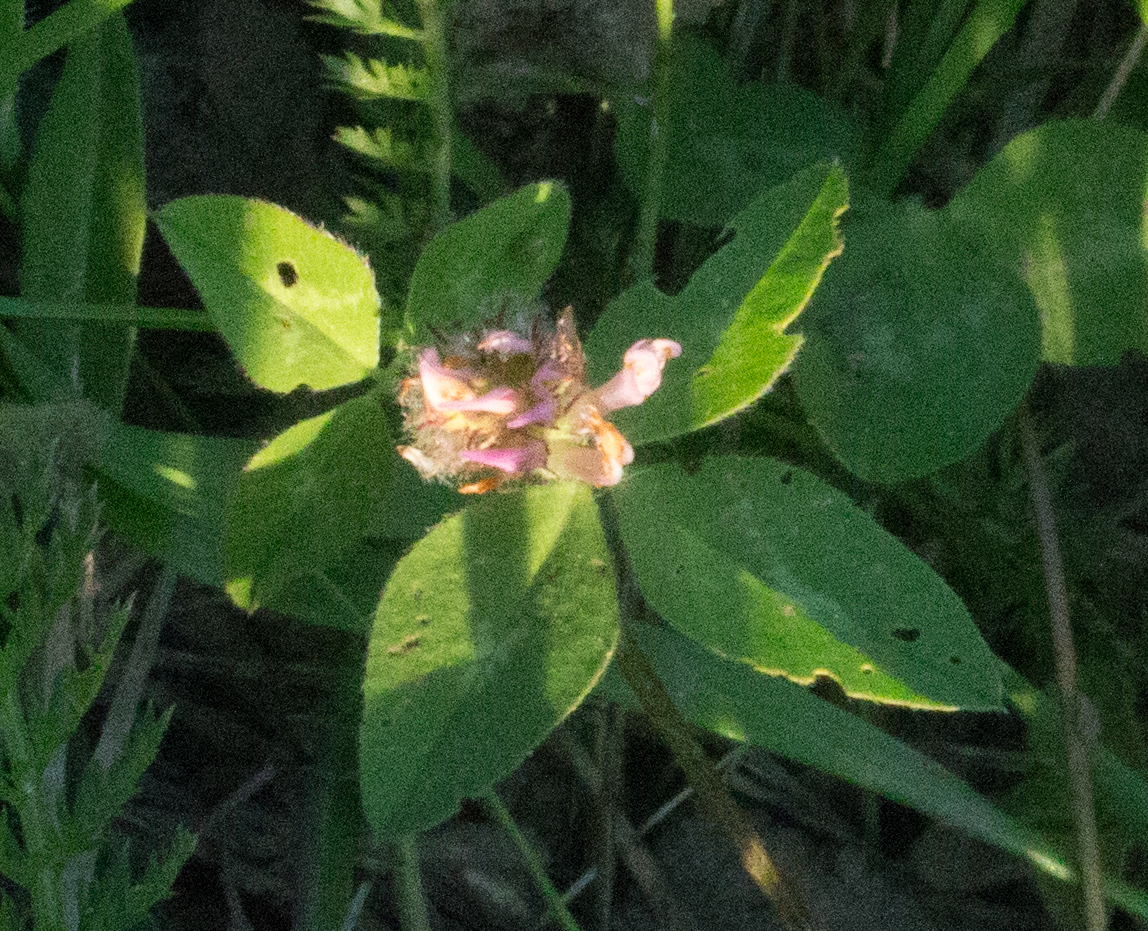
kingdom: Plantae
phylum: Tracheophyta
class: Magnoliopsida
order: Fabales
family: Fabaceae
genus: Trifolium
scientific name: Trifolium pratense
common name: Red clover
